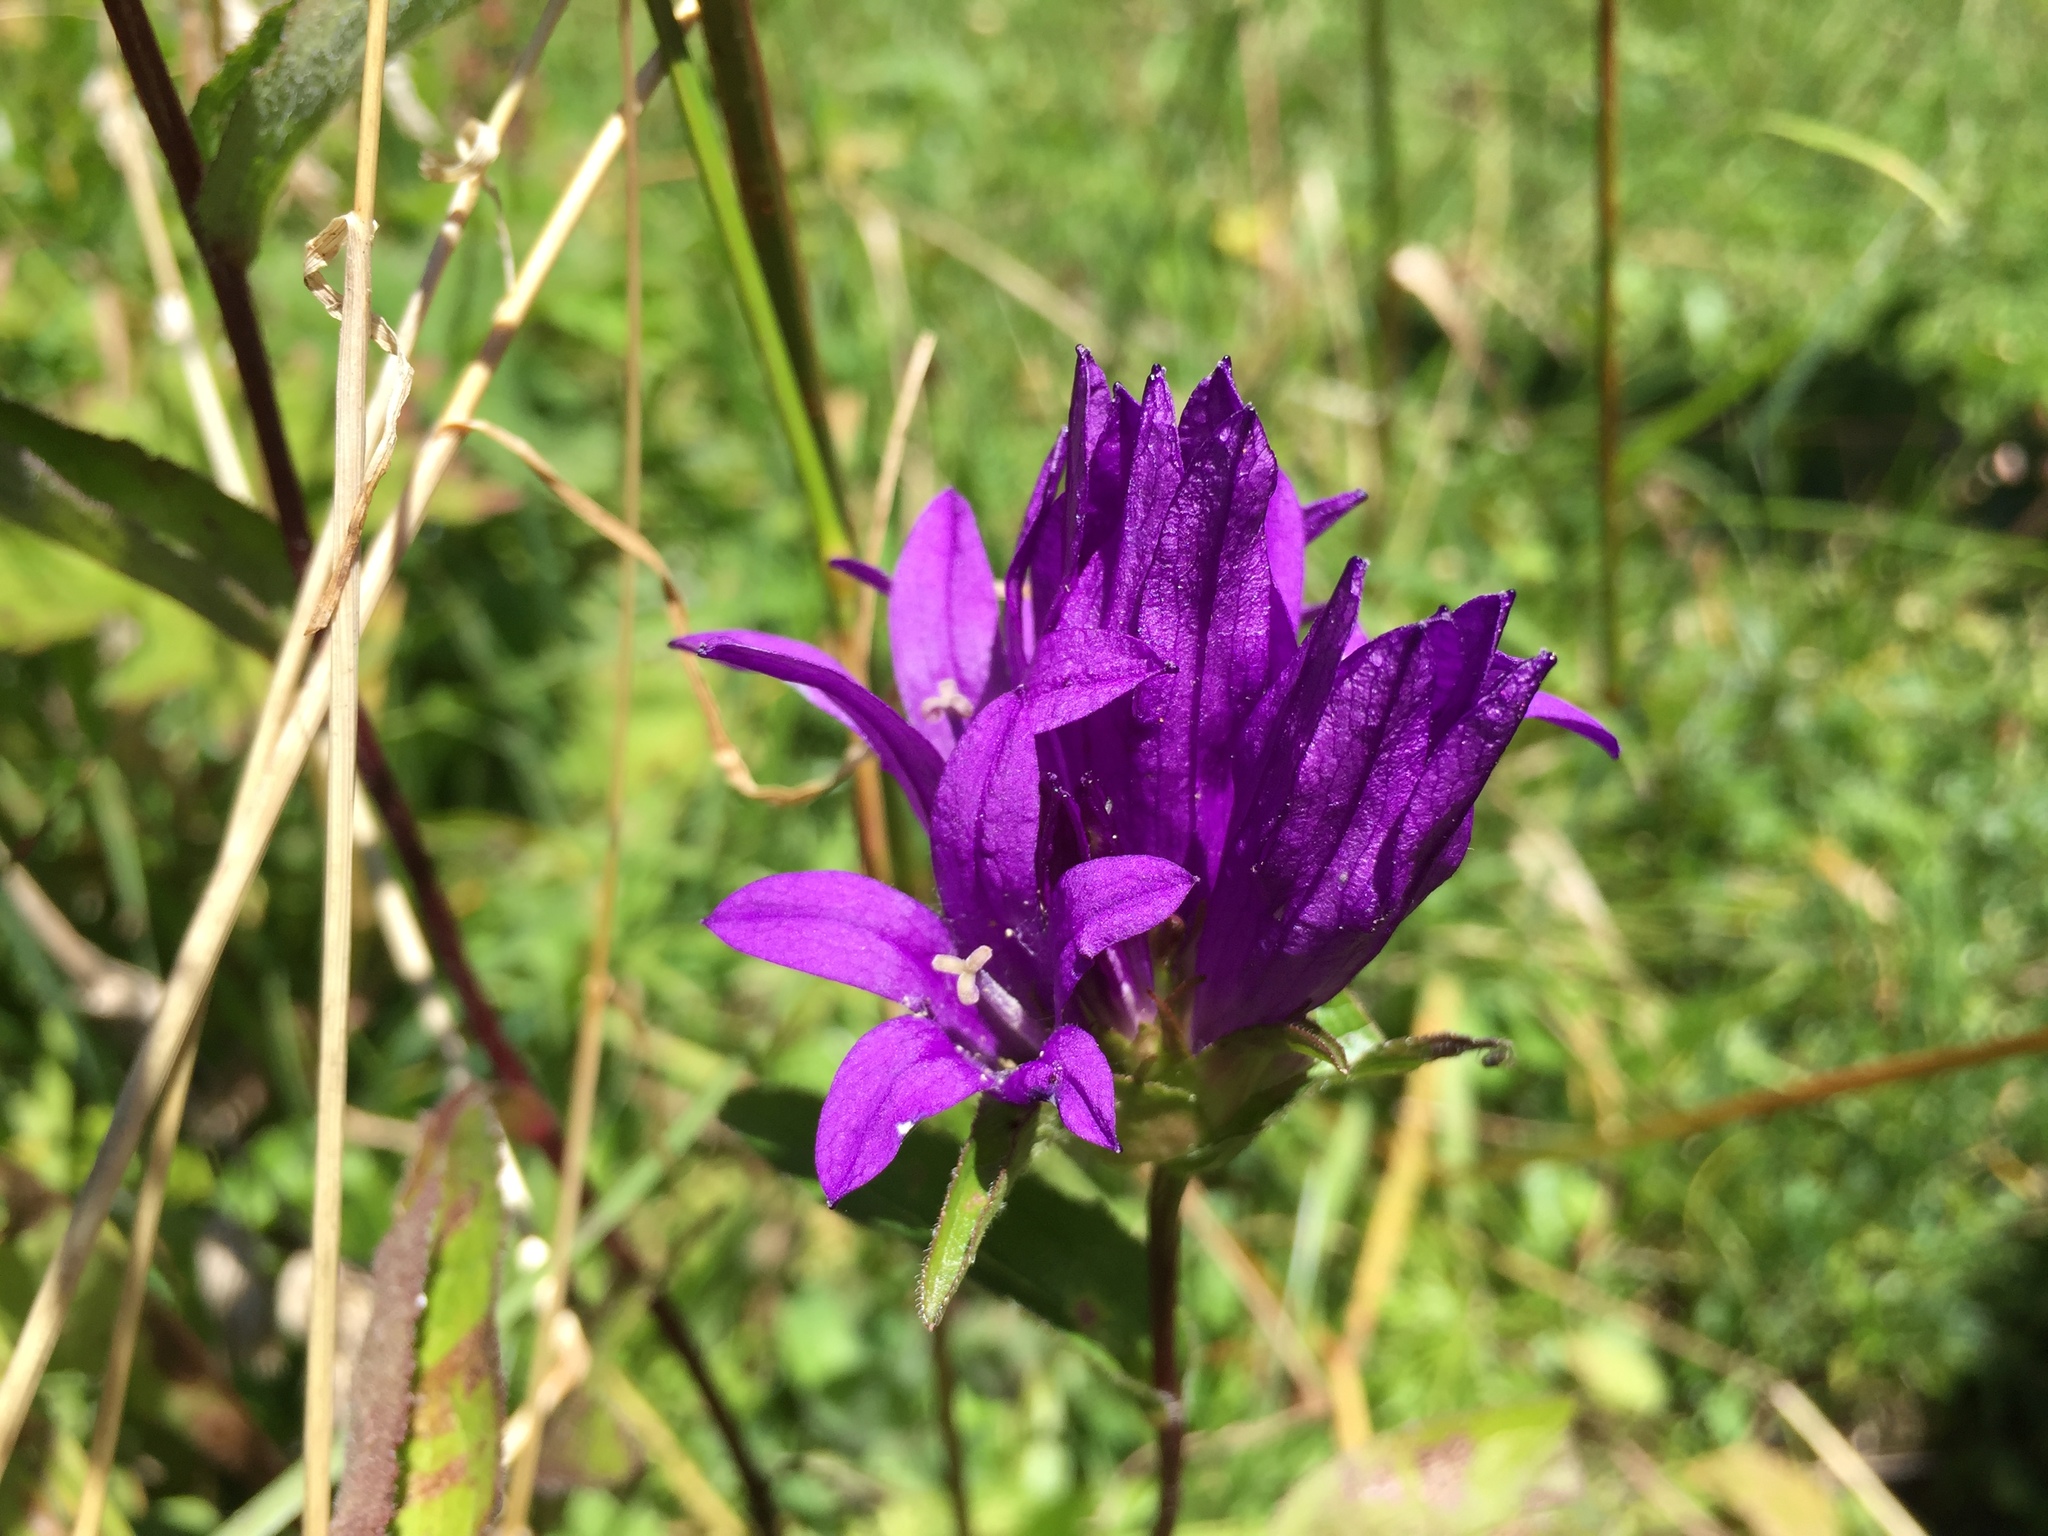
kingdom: Plantae
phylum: Tracheophyta
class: Magnoliopsida
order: Asterales
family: Campanulaceae
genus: Campanula
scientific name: Campanula glomerata
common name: Clustered bellflower
